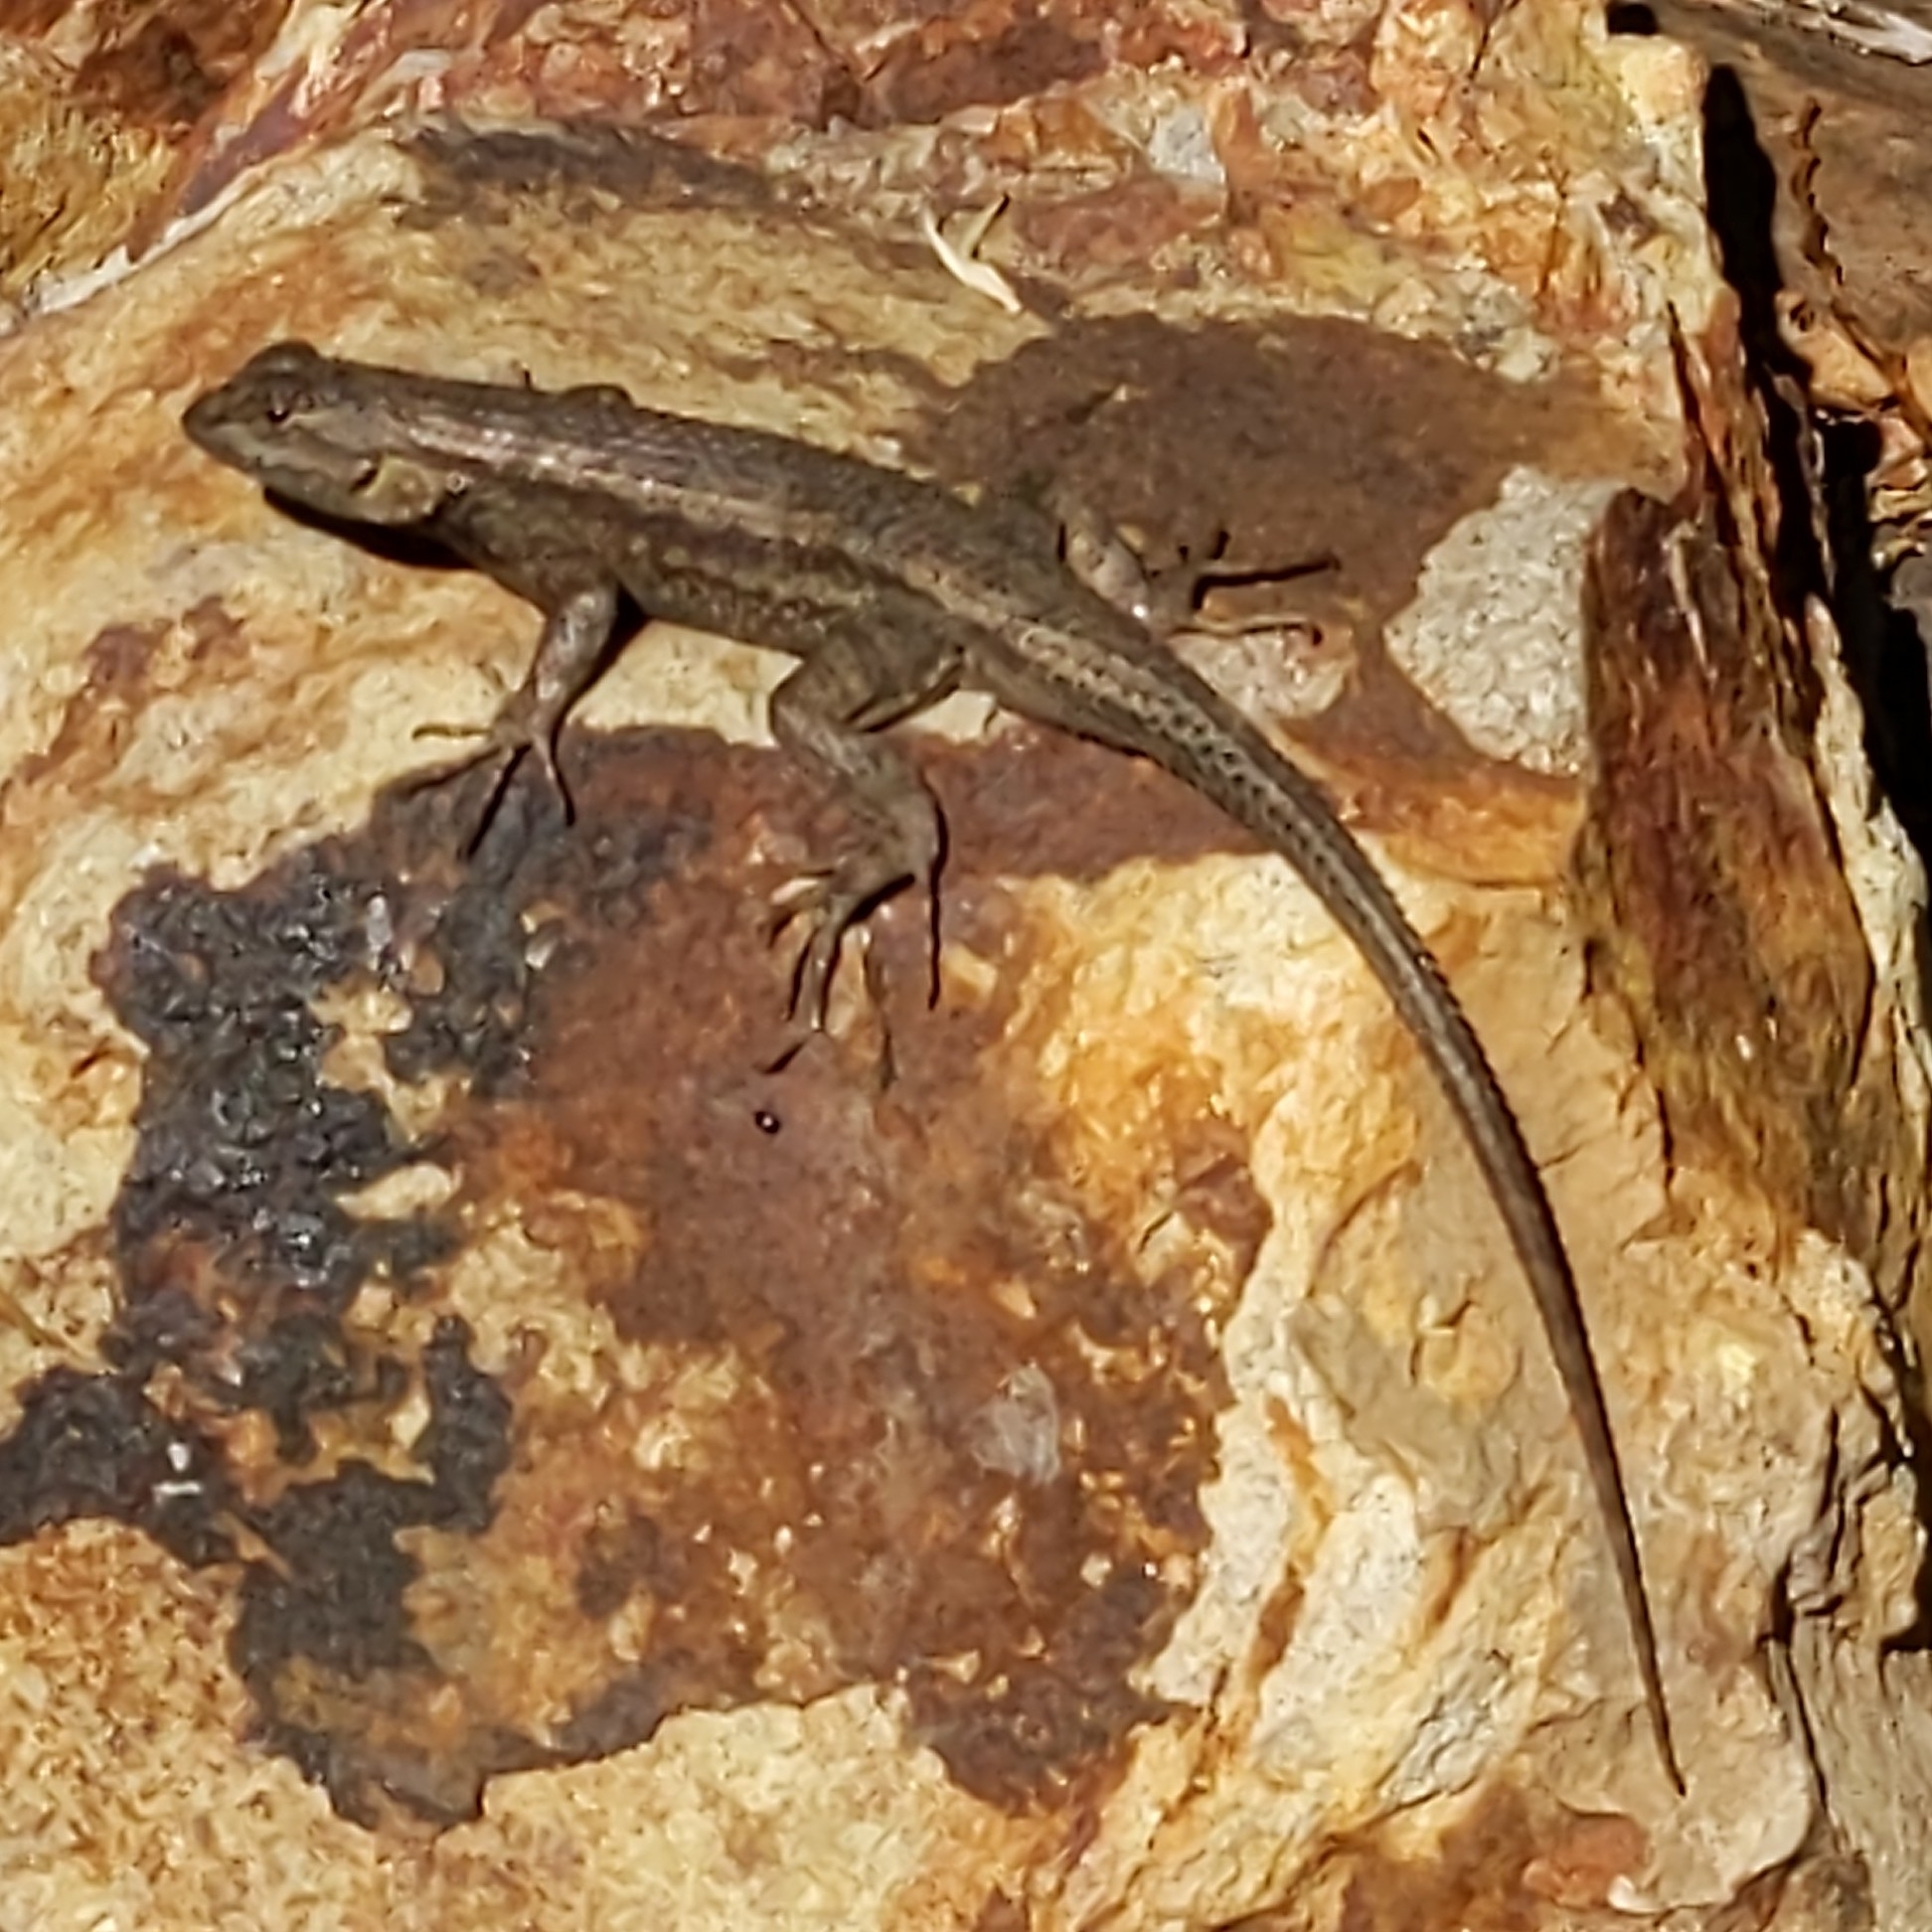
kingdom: Animalia
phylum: Chordata
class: Squamata
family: Phrynosomatidae
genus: Sceloporus
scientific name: Sceloporus occidentalis
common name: Western fence lizard
